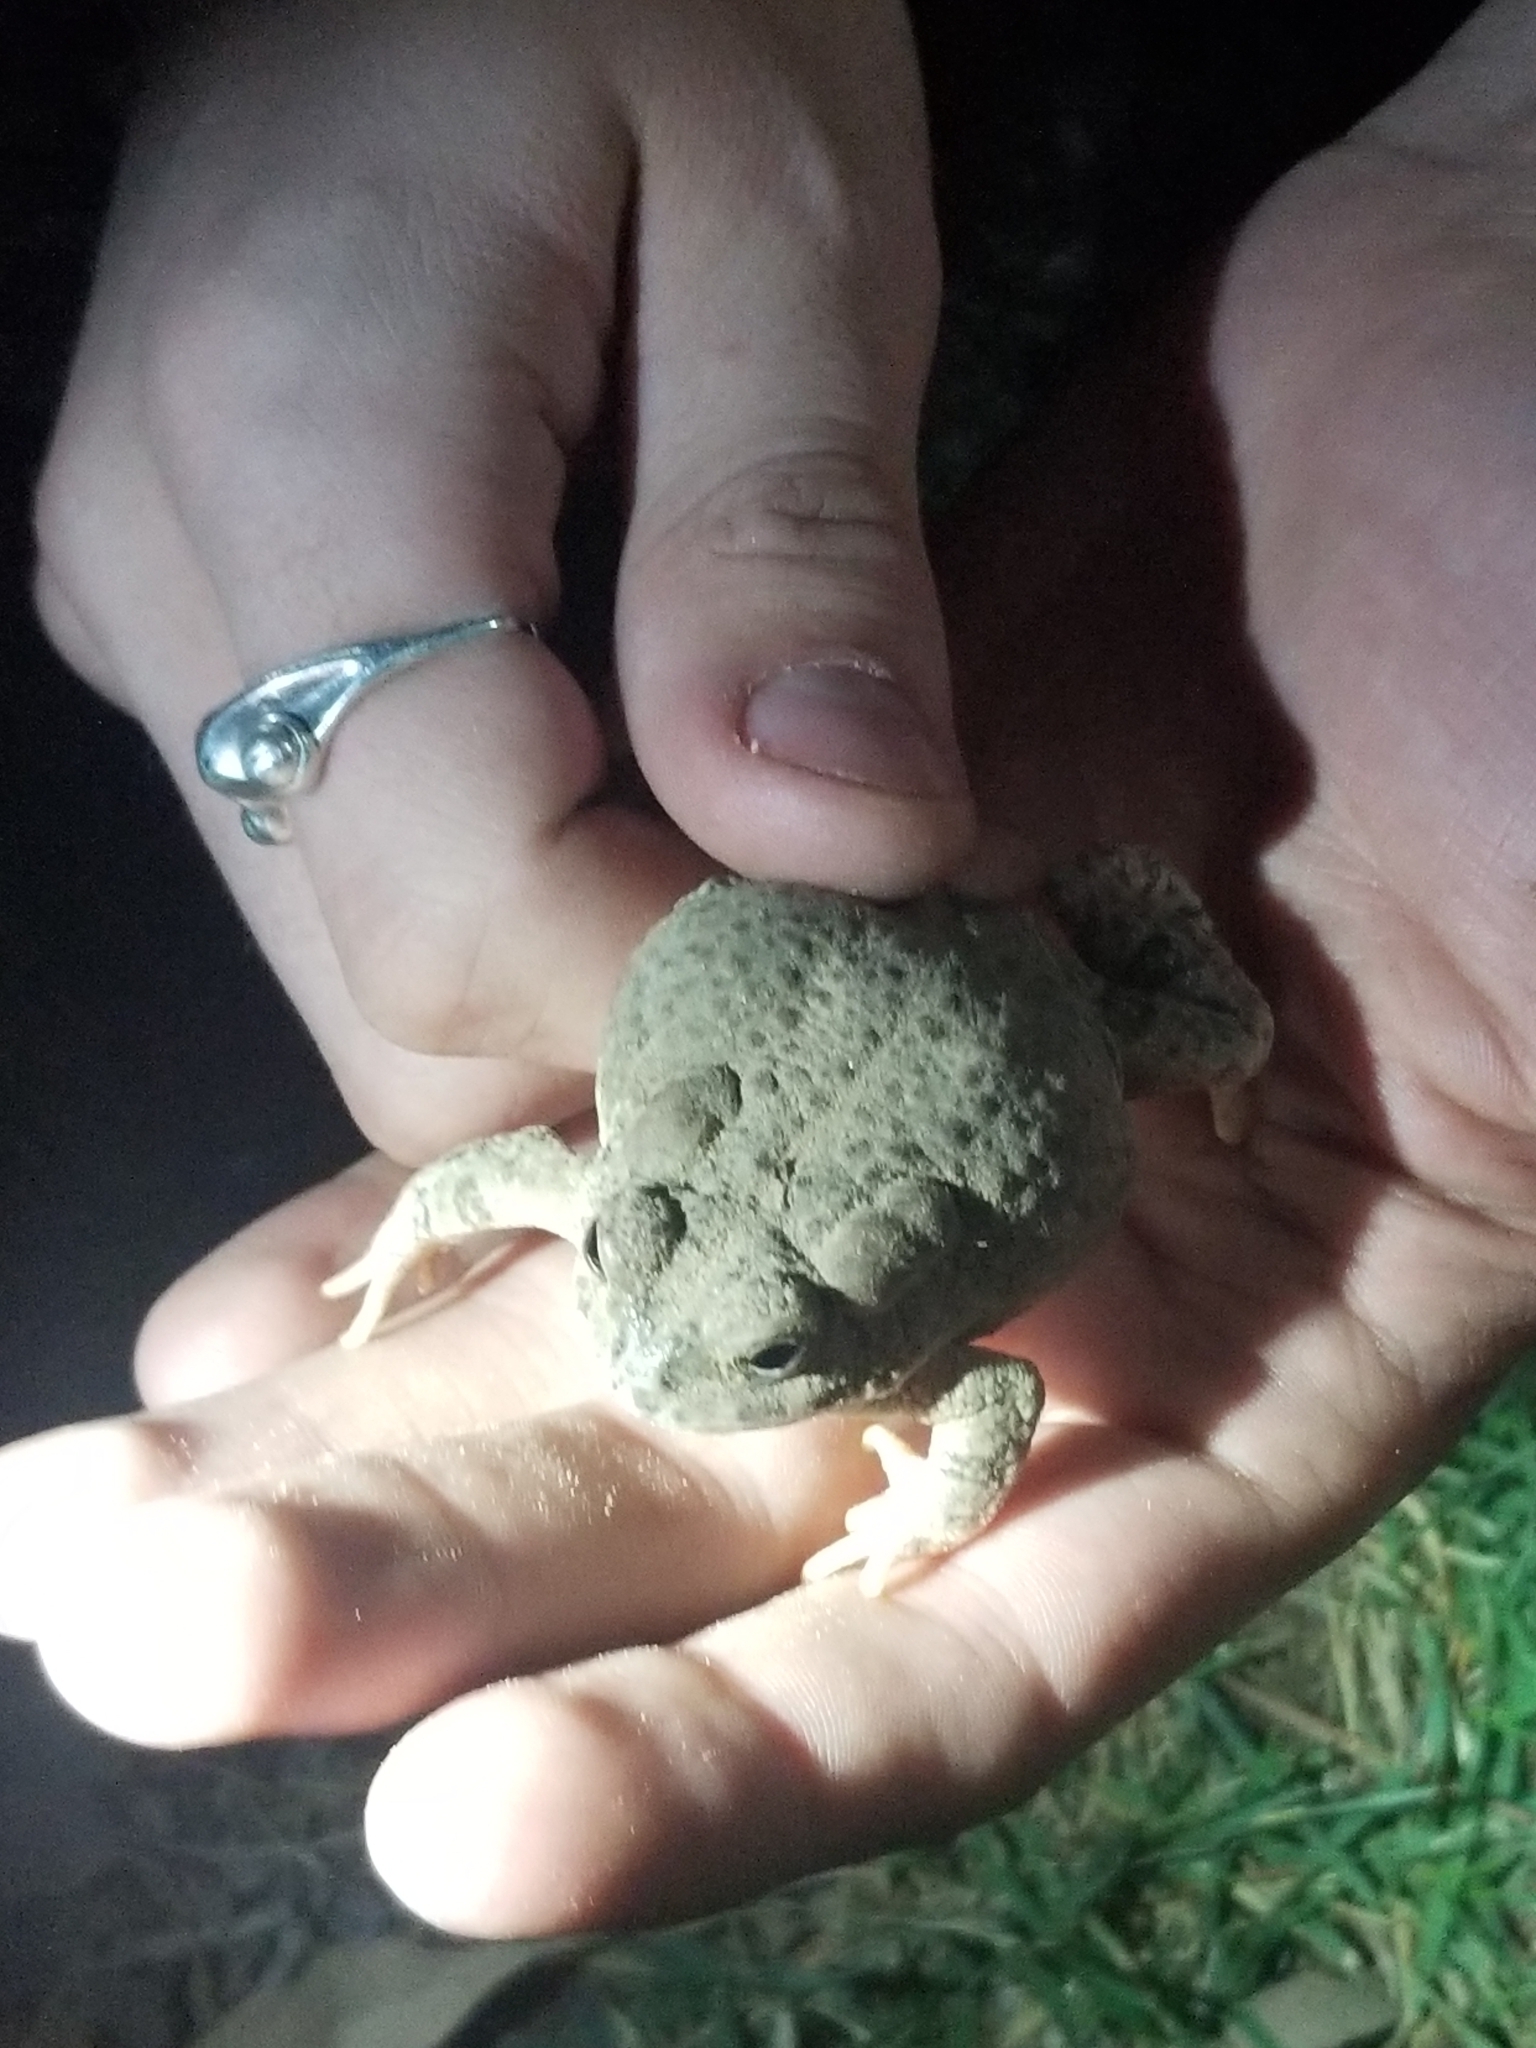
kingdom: Animalia
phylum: Chordata
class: Amphibia
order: Anura
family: Bufonidae
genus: Anaxyrus
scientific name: Anaxyrus microscaphus
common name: Arizona toad
